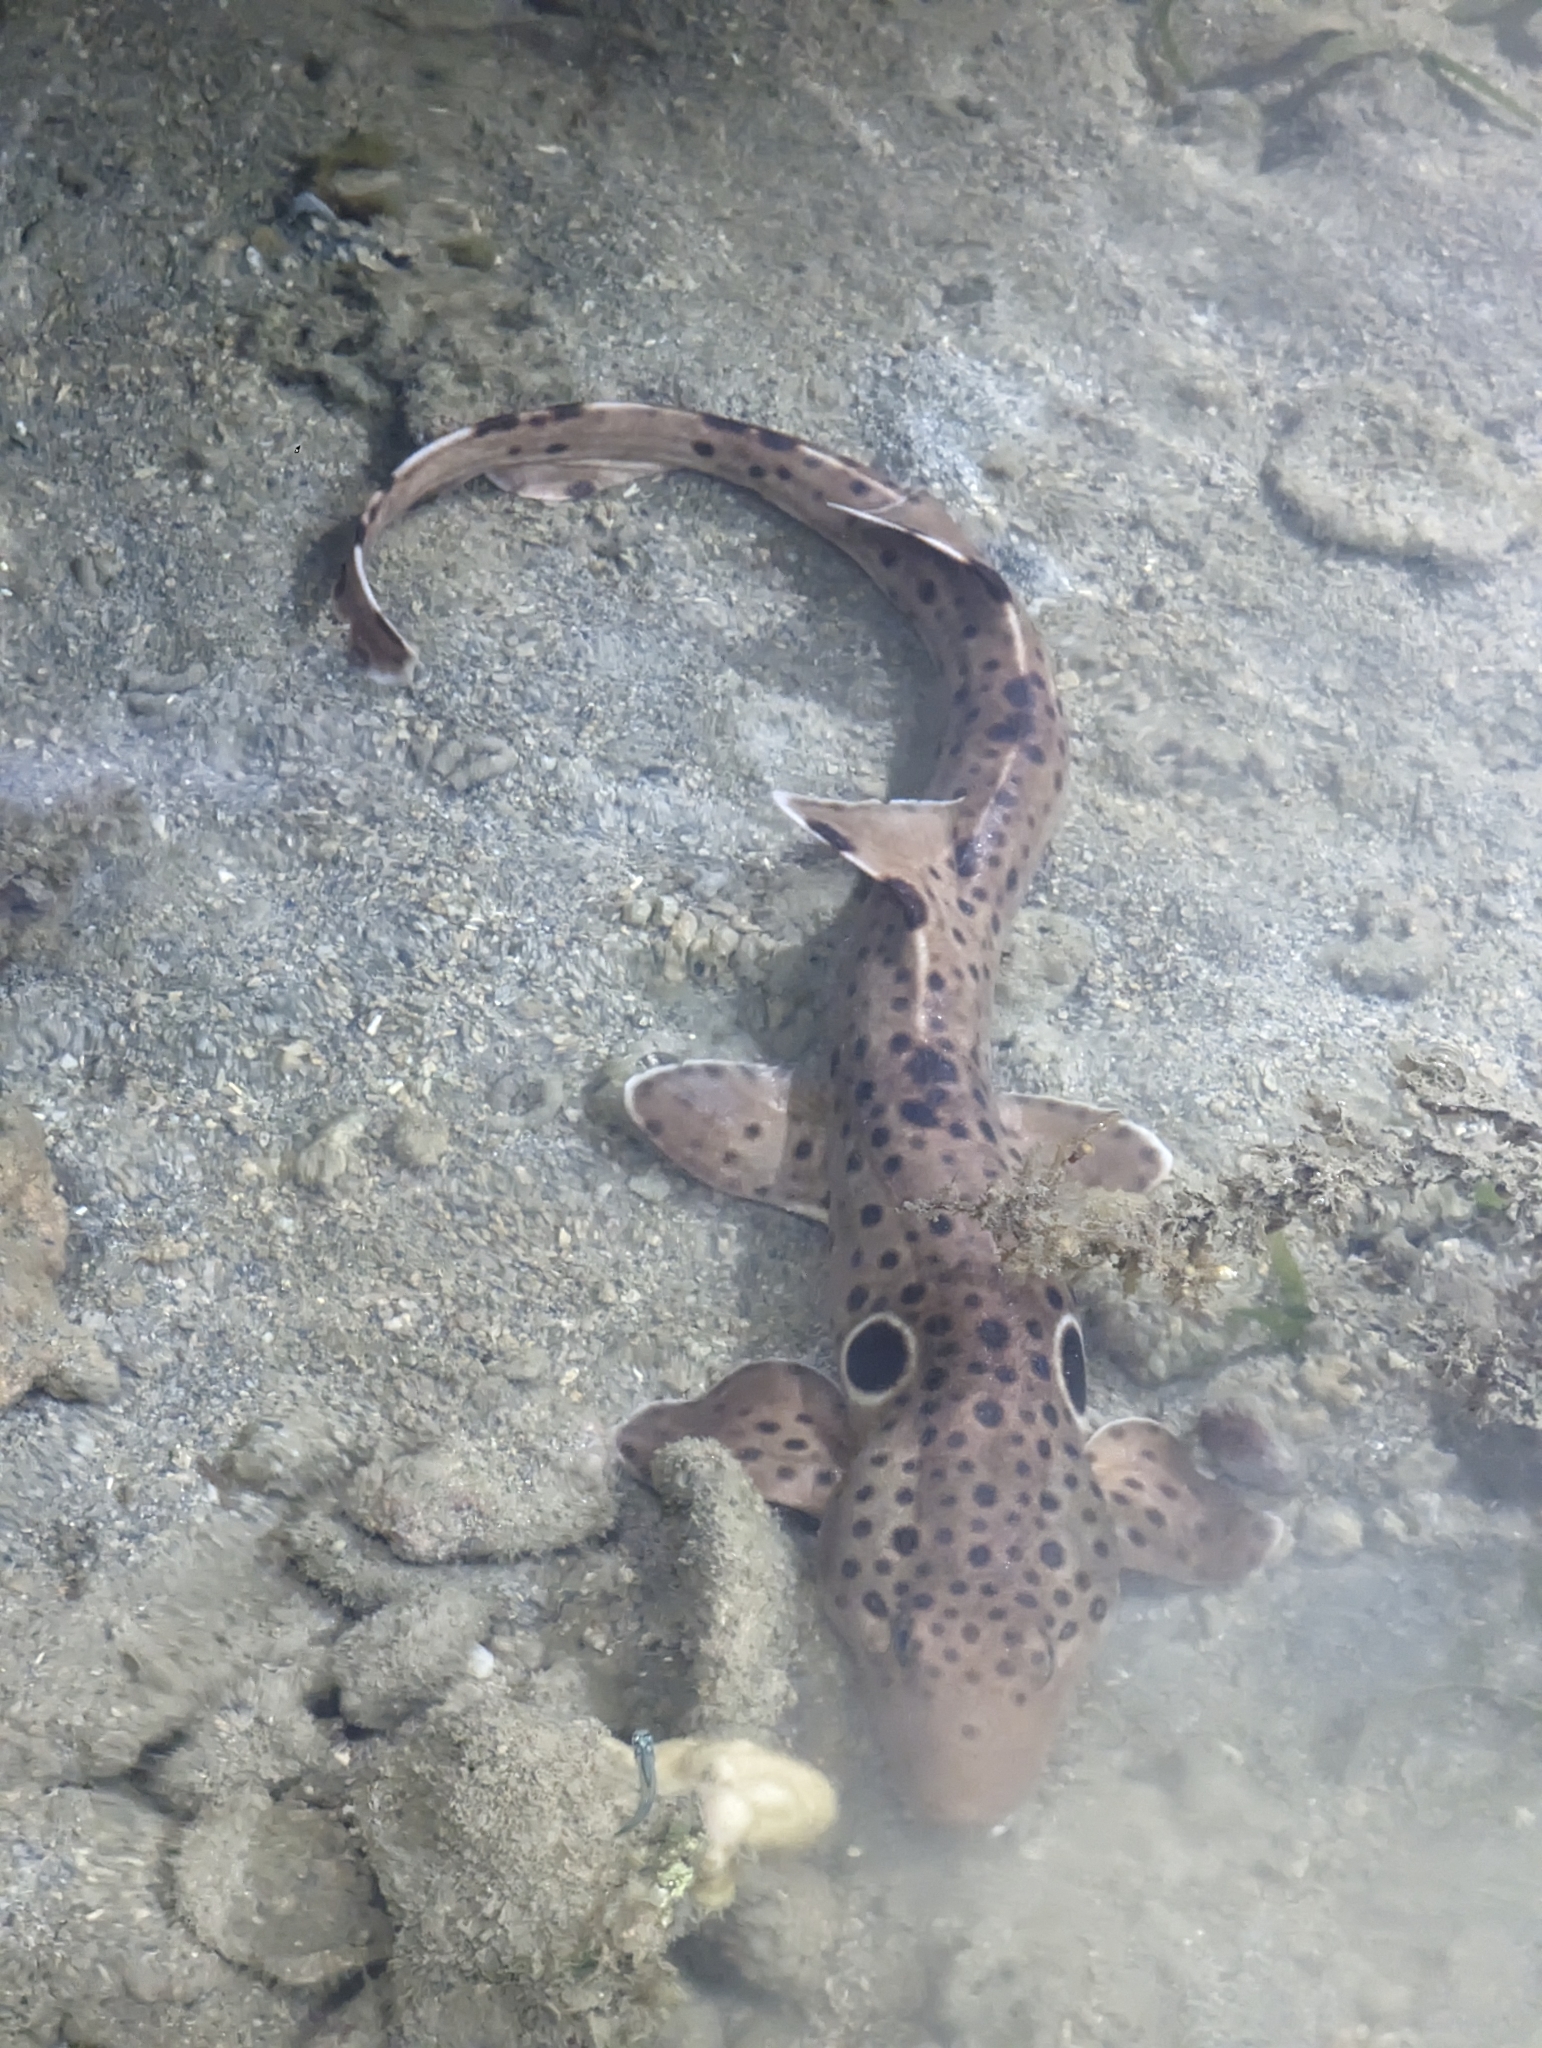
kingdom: Animalia
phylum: Chordata
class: Elasmobranchii
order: Orectolobiformes
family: Hemiscylliidae
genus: Hemiscyllium
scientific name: Hemiscyllium ocellatum
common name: Epaulette shark
